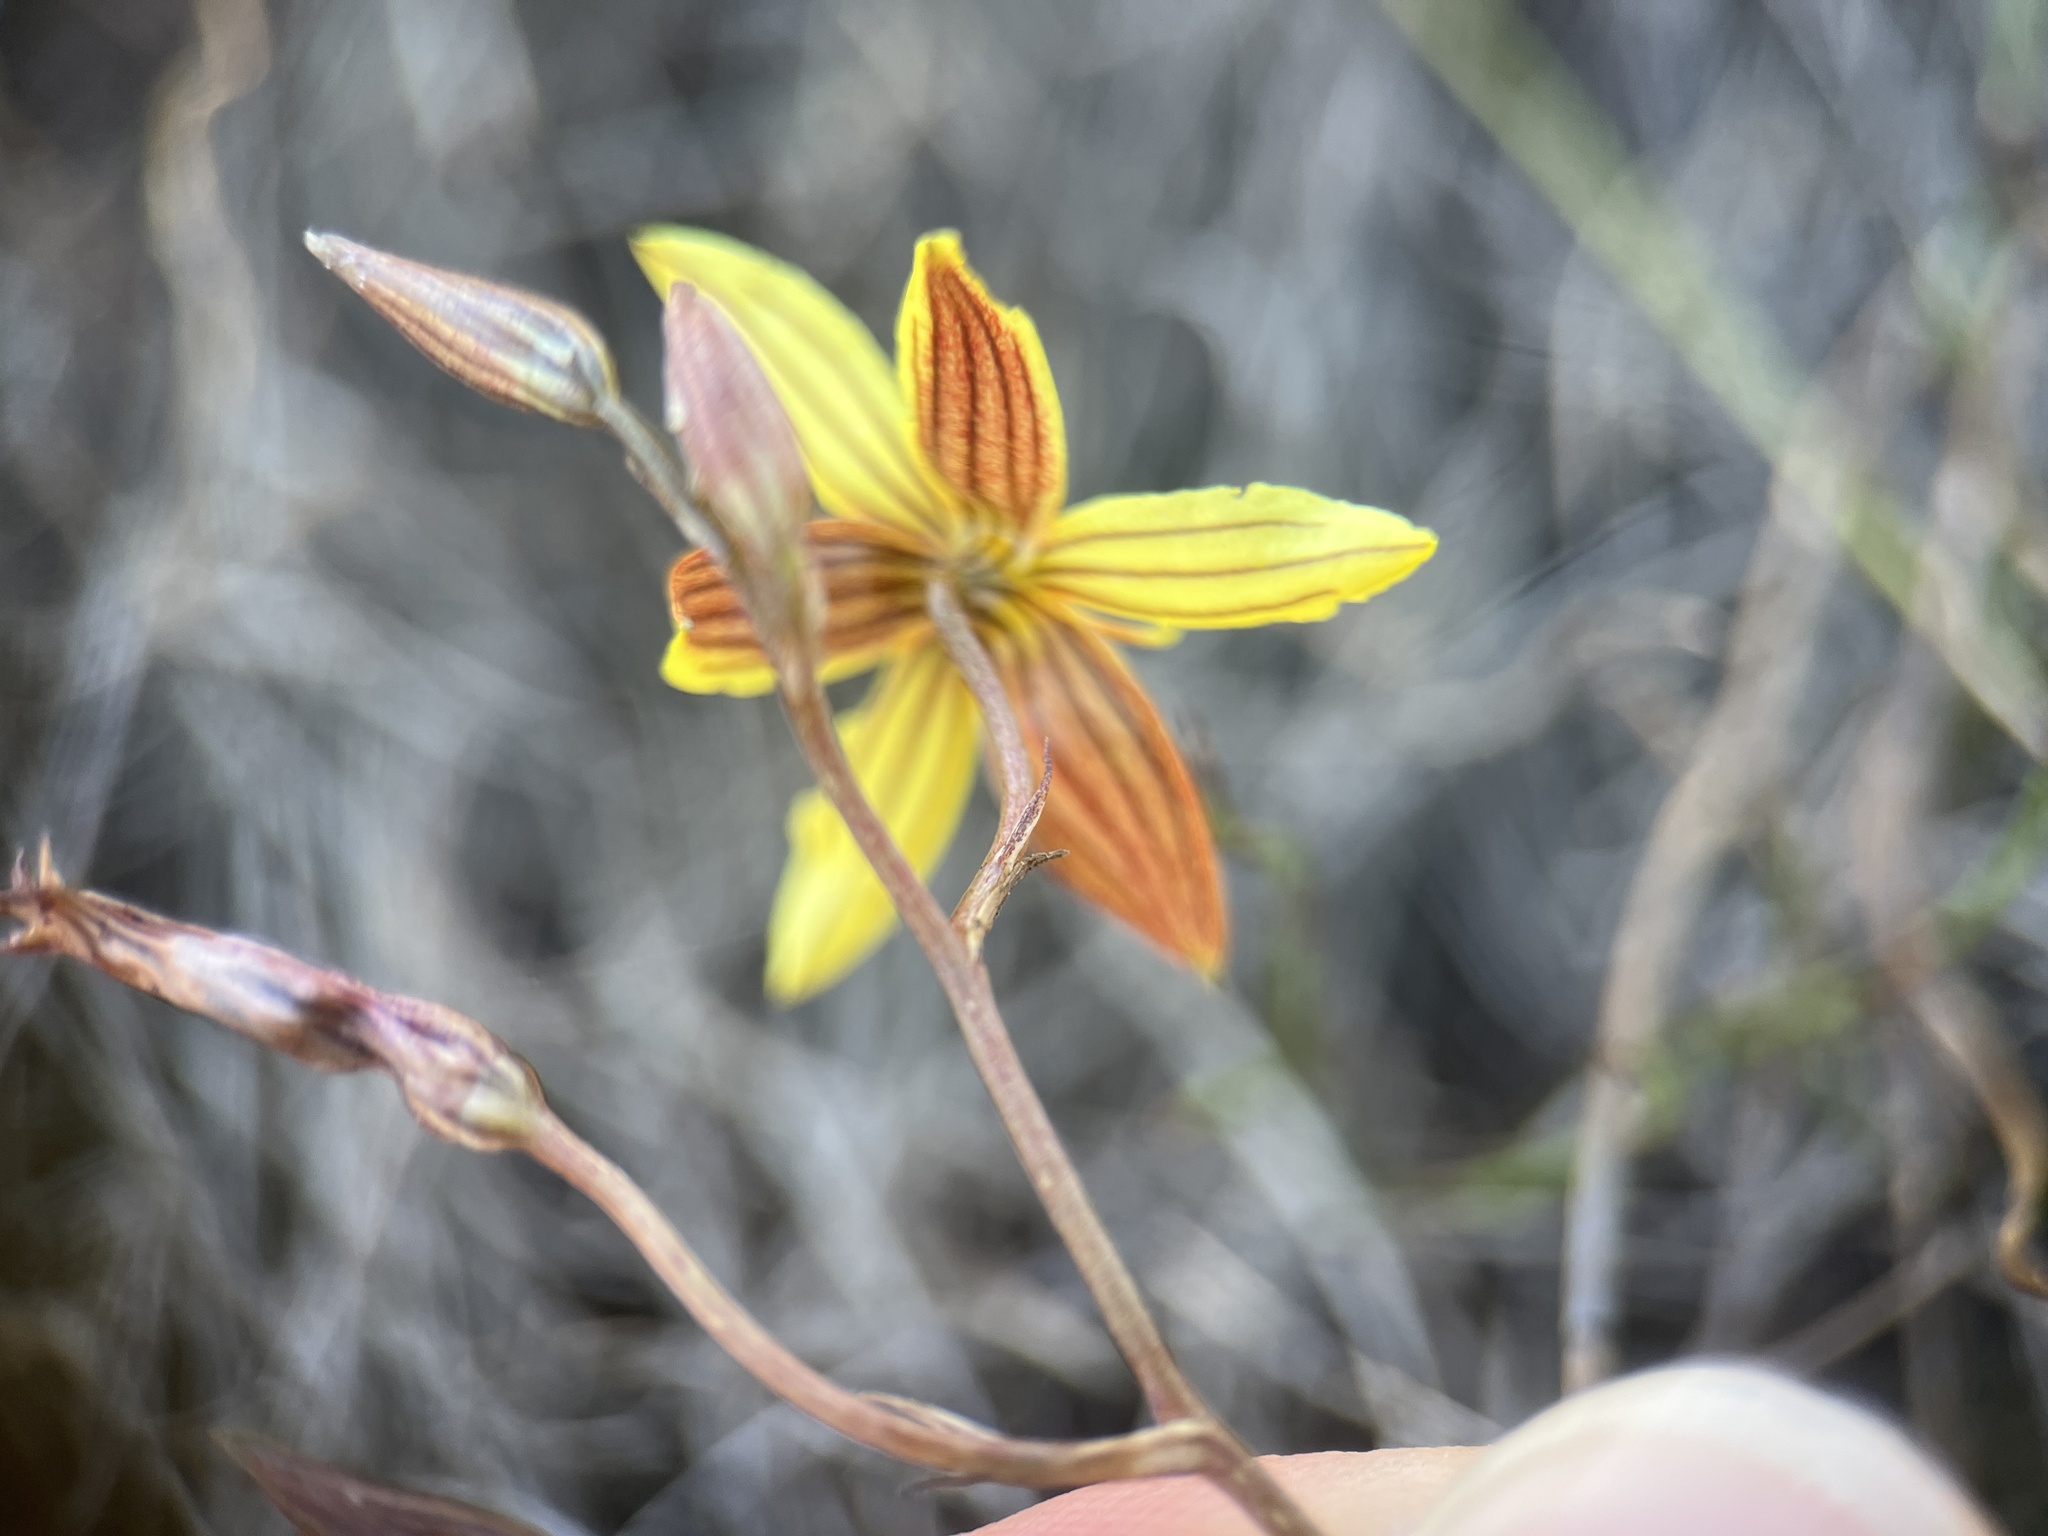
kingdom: Plantae
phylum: Tracheophyta
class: Liliopsida
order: Asparagales
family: Tecophilaeaceae
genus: Cyanella
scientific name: Cyanella lutea
